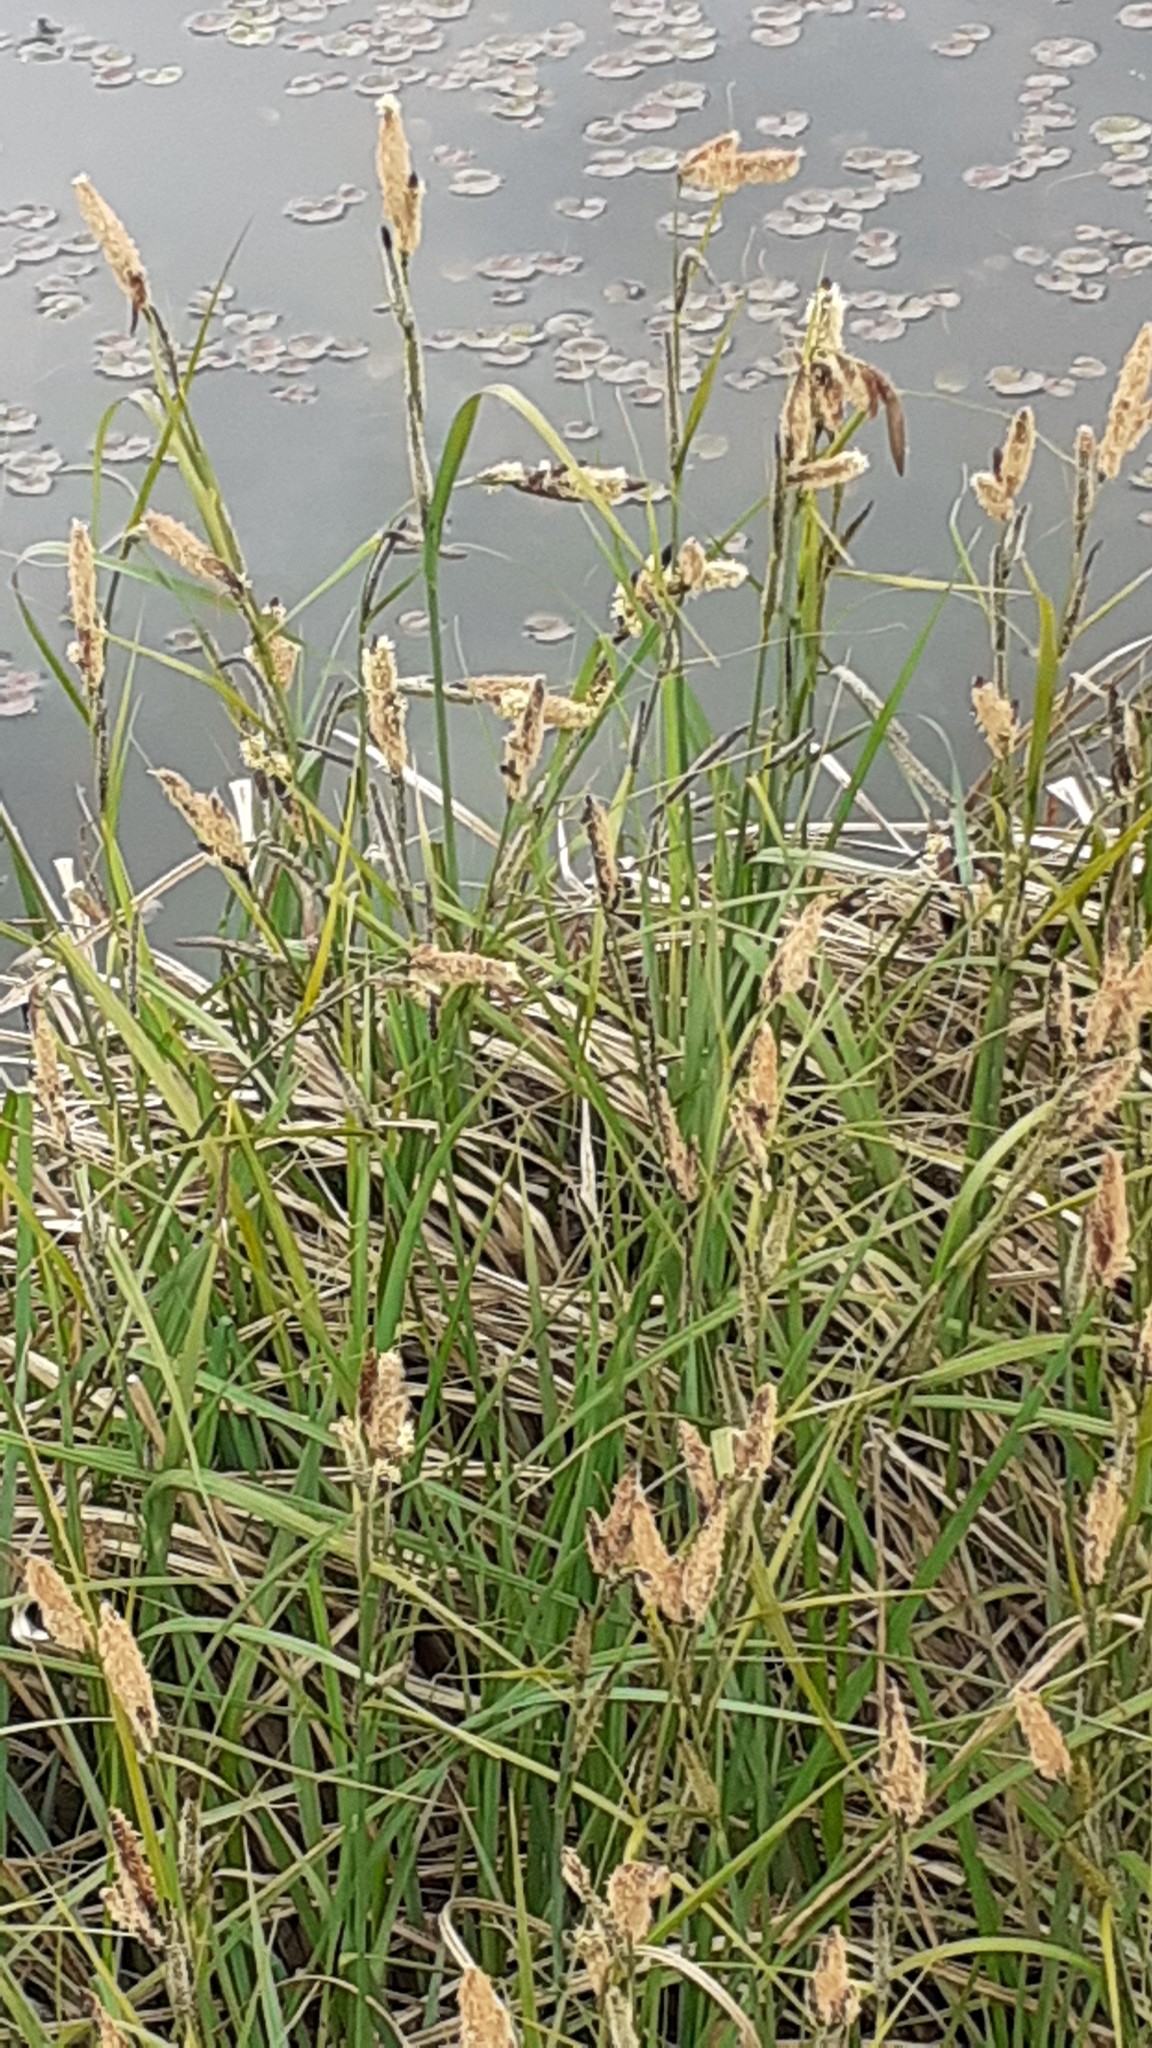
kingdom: Plantae
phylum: Tracheophyta
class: Liliopsida
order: Poales
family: Cyperaceae
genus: Carex
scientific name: Carex acutiformis
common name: Lesser pond-sedge
